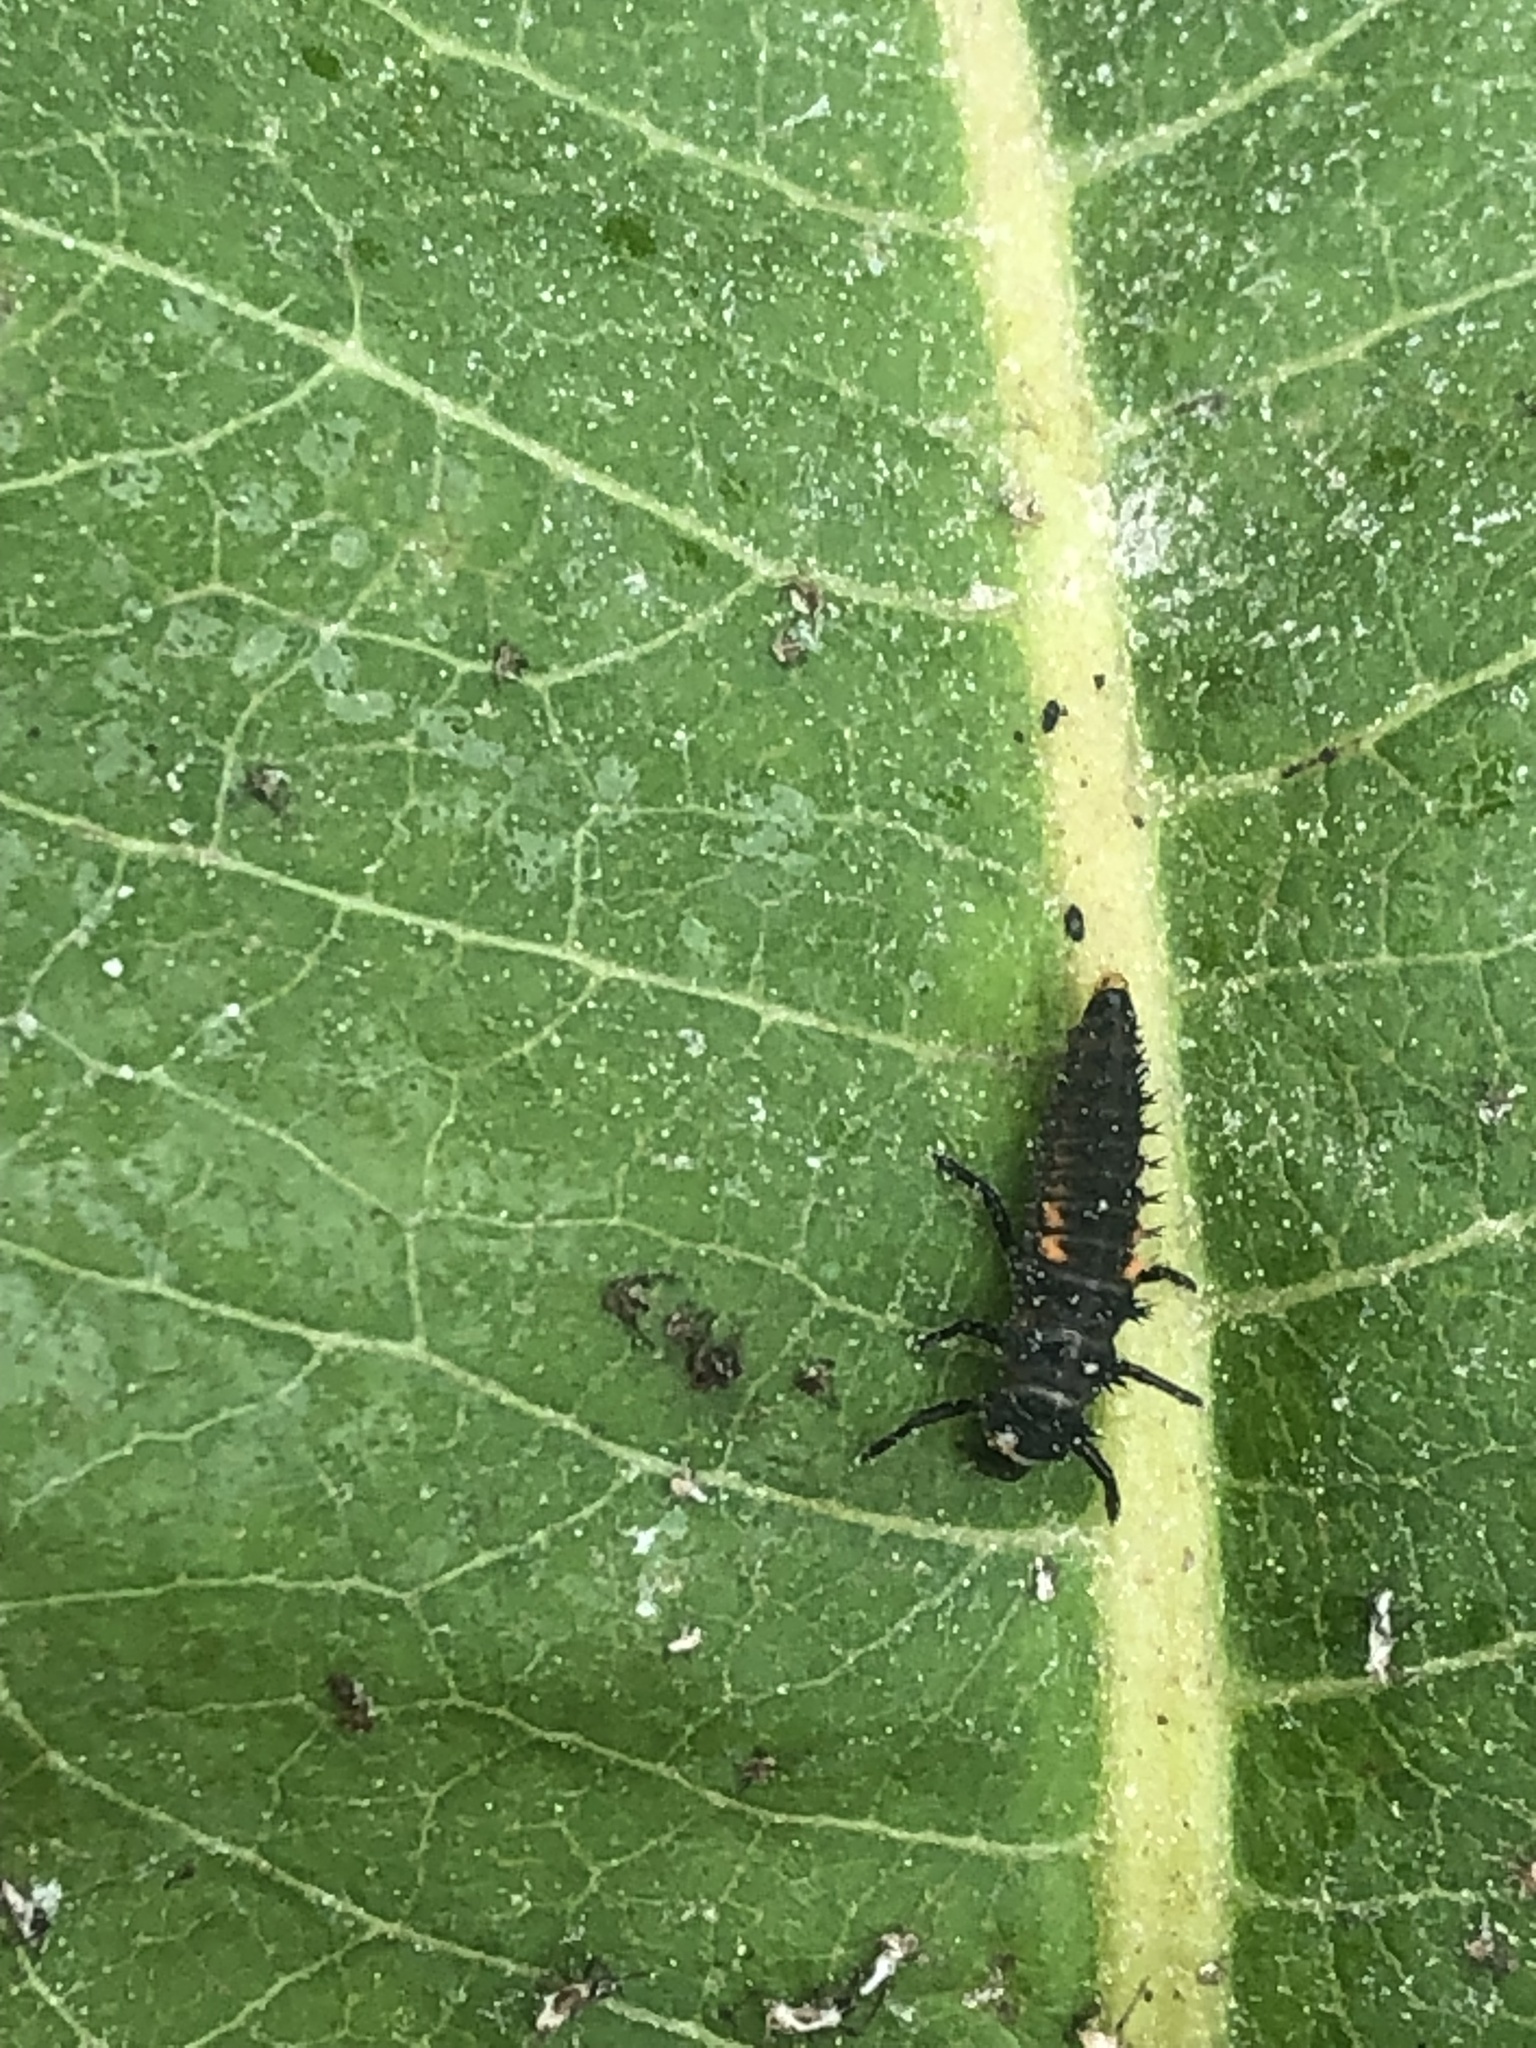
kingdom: Animalia
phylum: Arthropoda
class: Insecta
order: Coleoptera
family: Coccinellidae
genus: Harmonia
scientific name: Harmonia axyridis
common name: Harlequin ladybird
